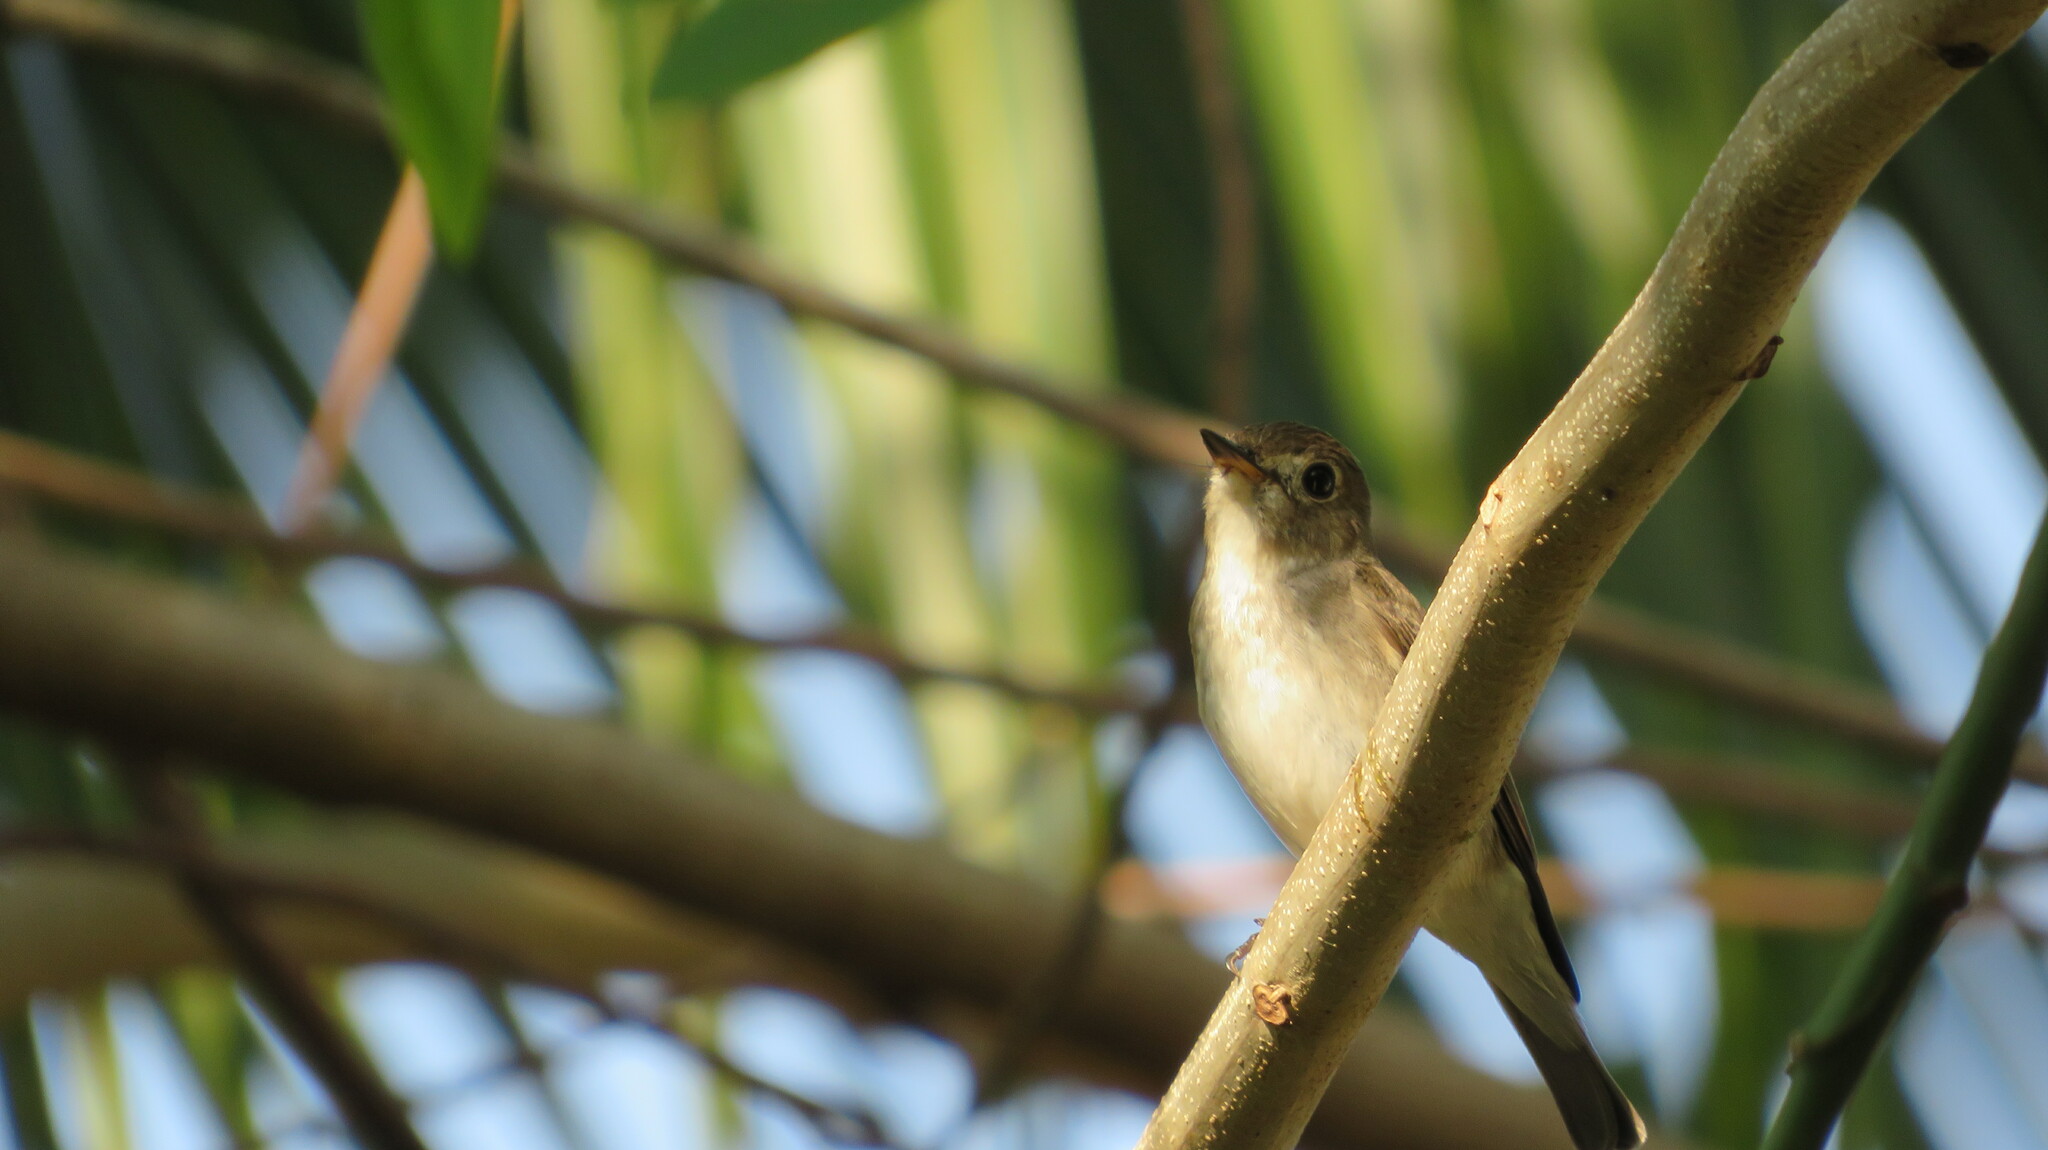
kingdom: Animalia
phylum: Chordata
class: Aves
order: Passeriformes
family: Muscicapidae
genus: Muscicapa
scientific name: Muscicapa latirostris
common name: Asian brown flycatcher
